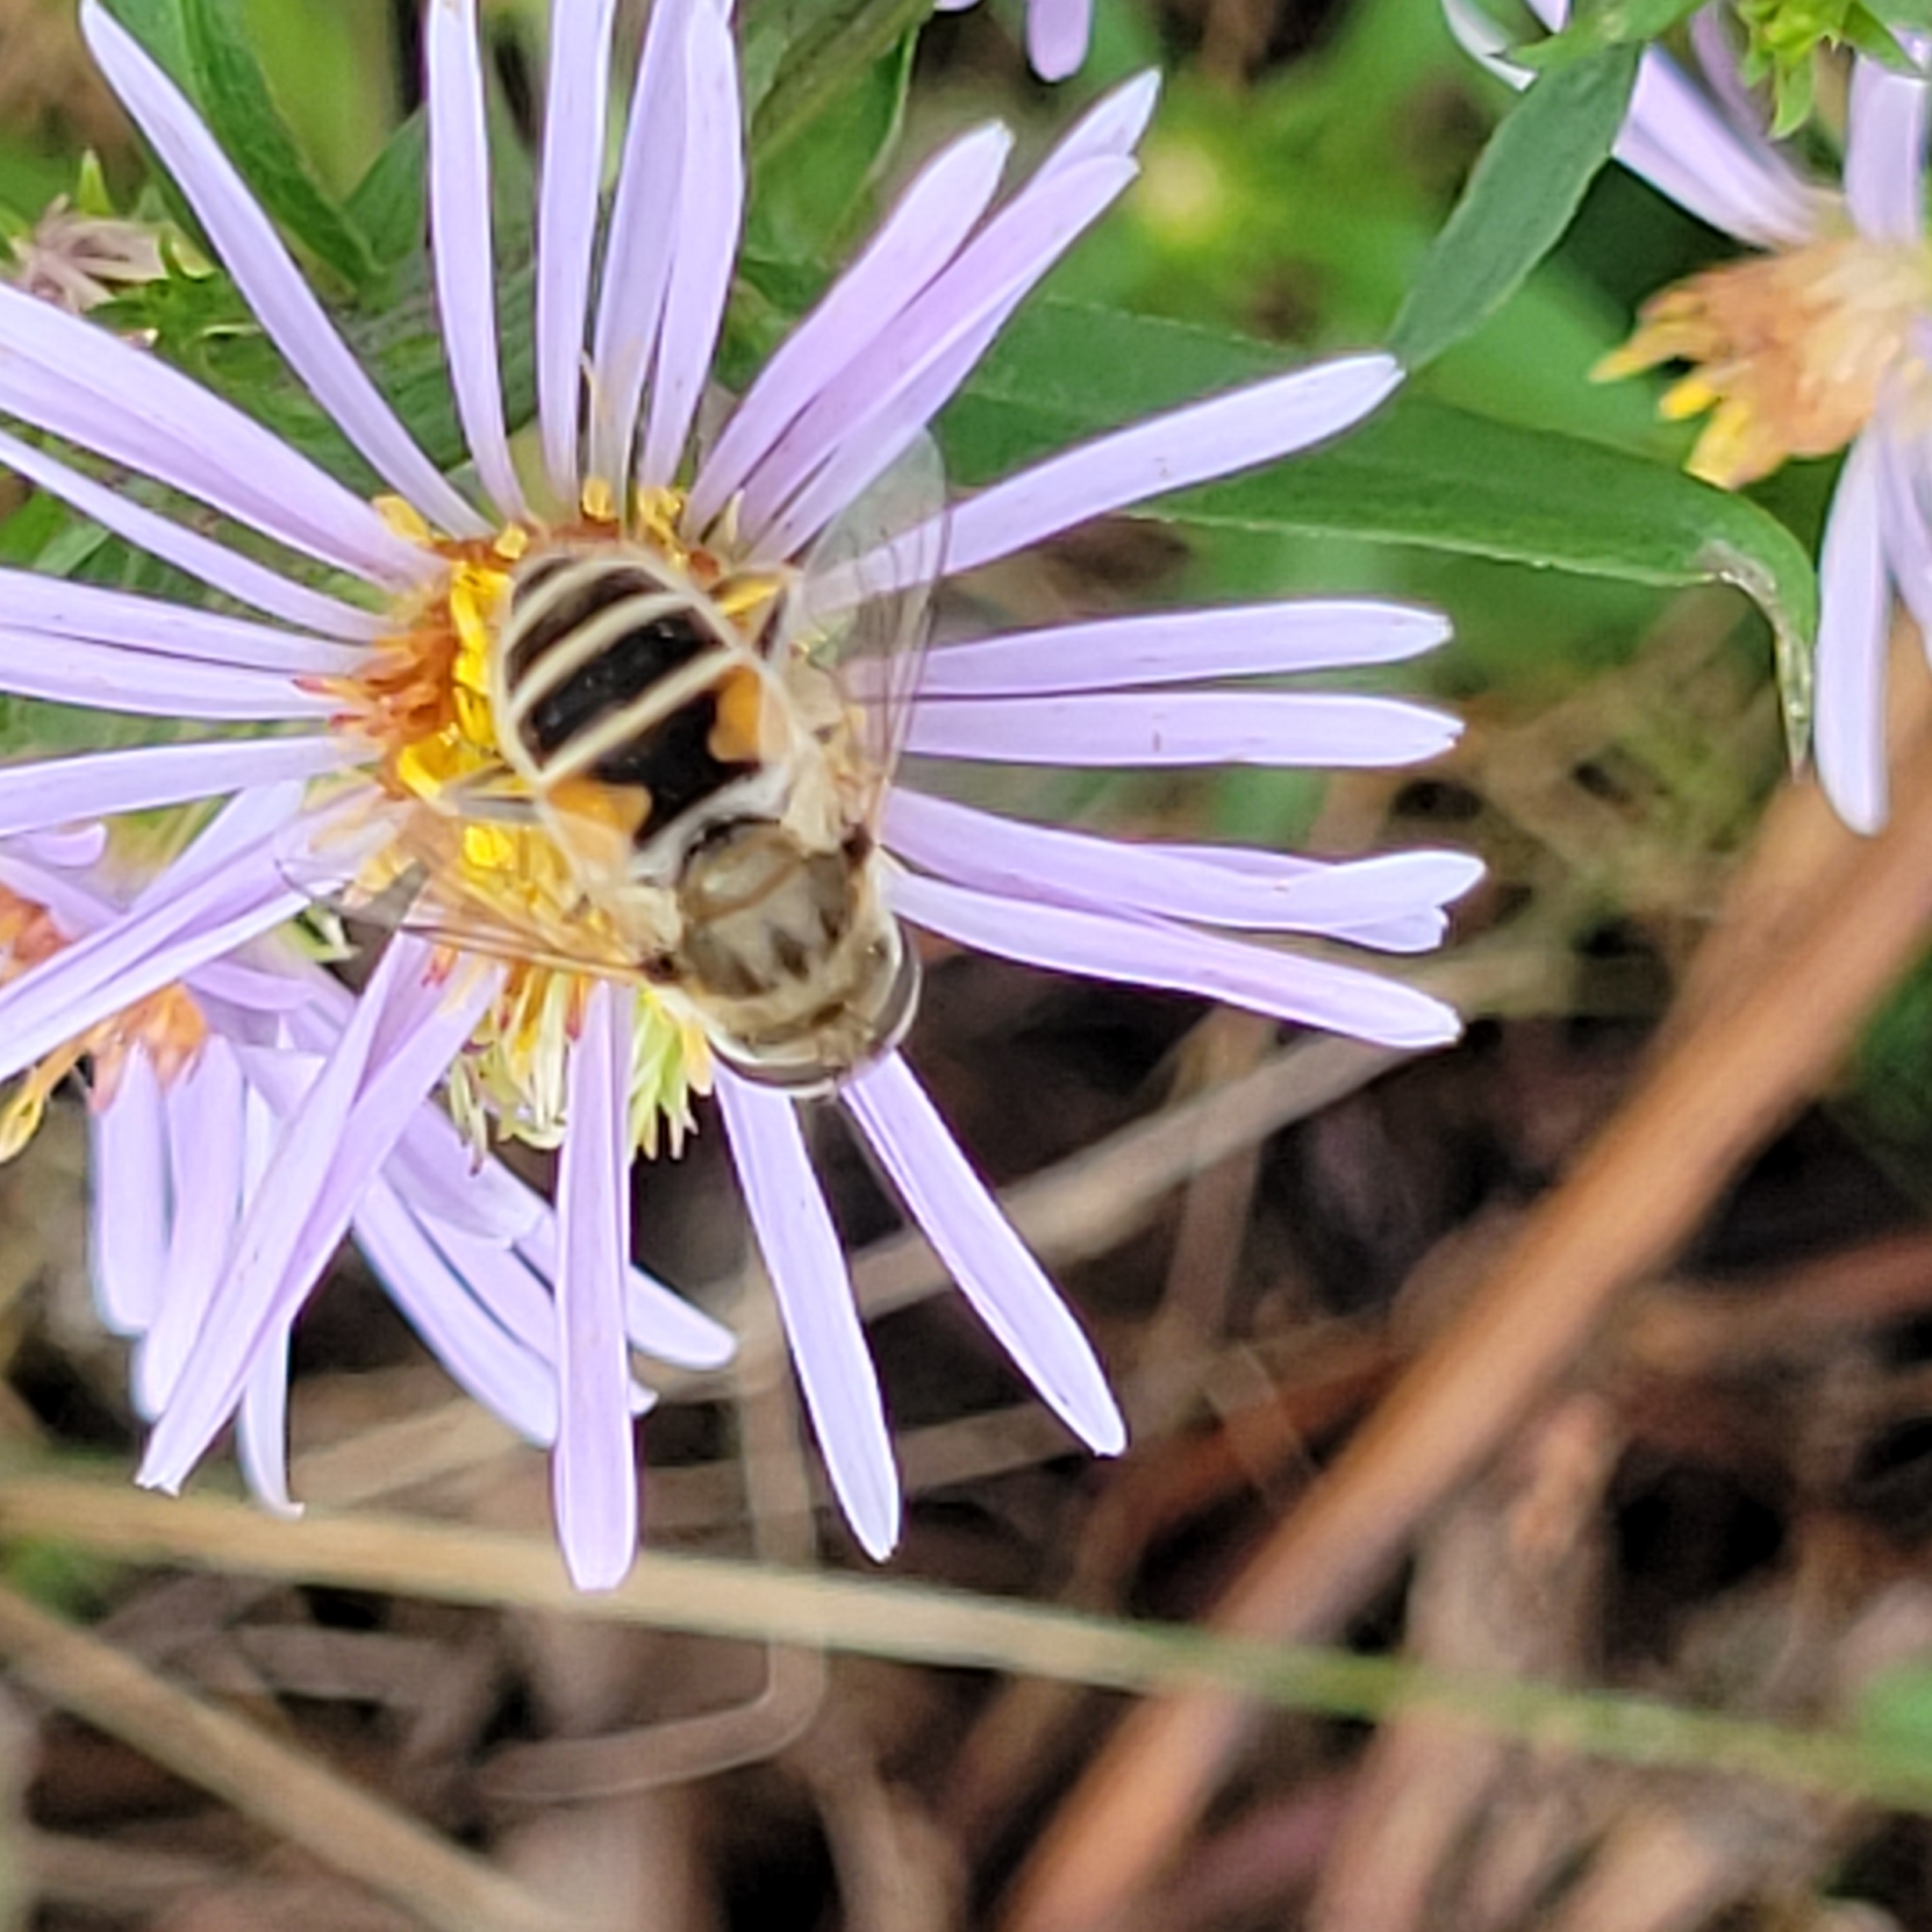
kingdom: Animalia
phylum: Arthropoda
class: Insecta
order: Diptera
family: Syrphidae
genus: Eristalis
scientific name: Eristalis arbustorum
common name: Hover fly
